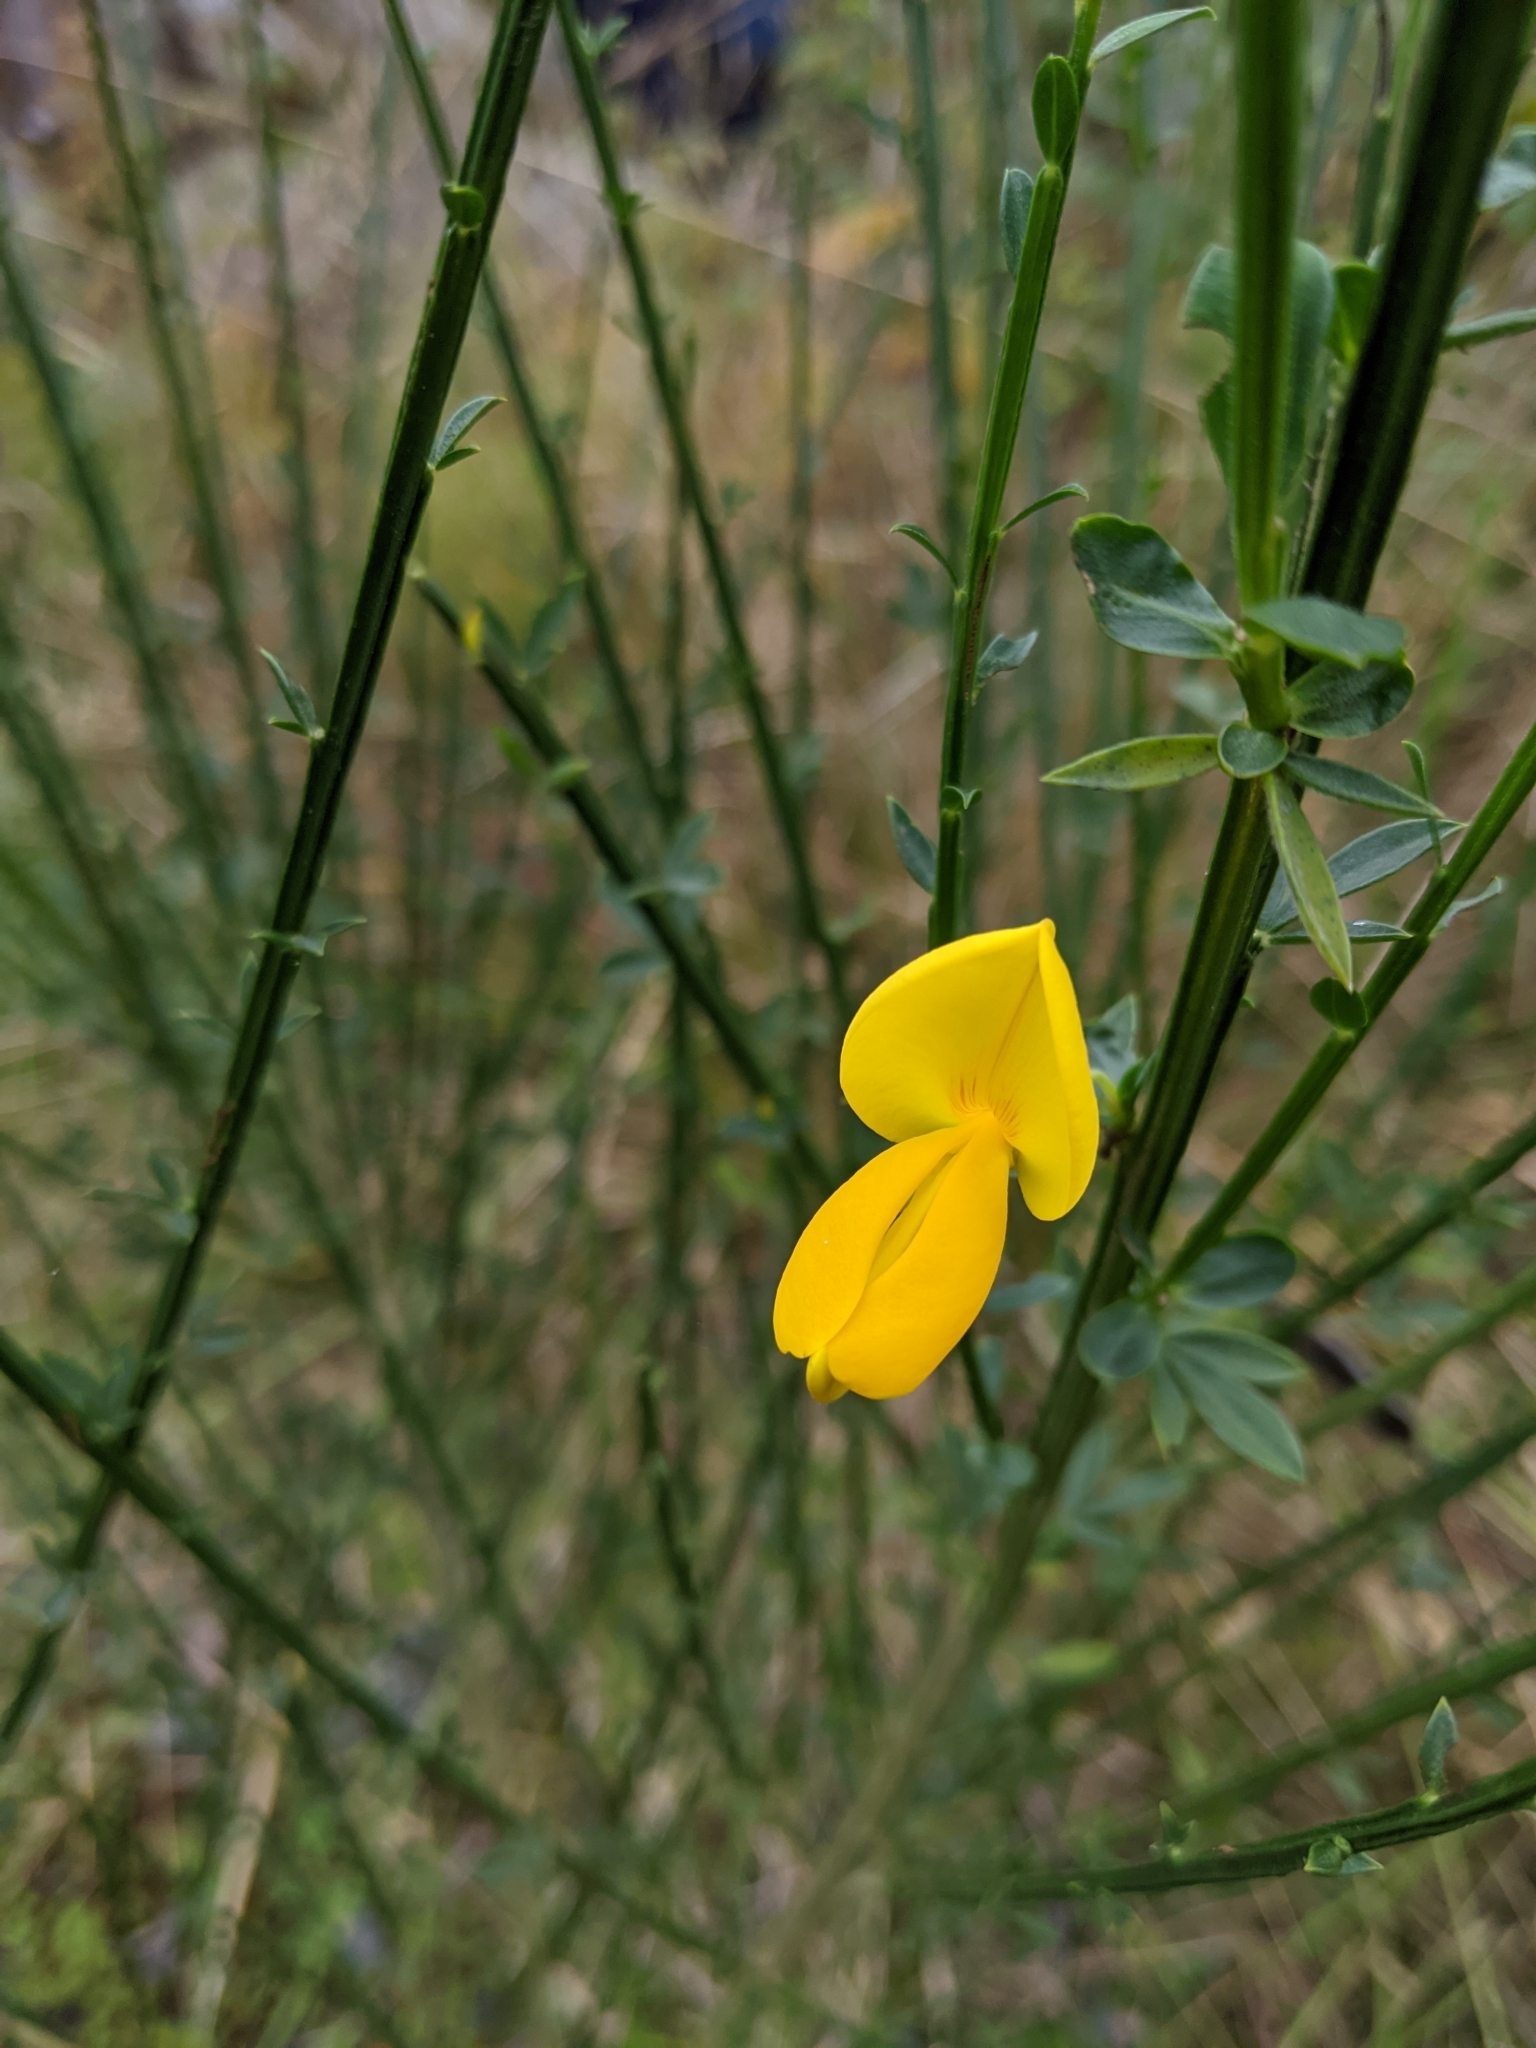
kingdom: Plantae
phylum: Tracheophyta
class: Magnoliopsida
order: Fabales
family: Fabaceae
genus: Cytisus
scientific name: Cytisus scoparius
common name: Scotch broom
